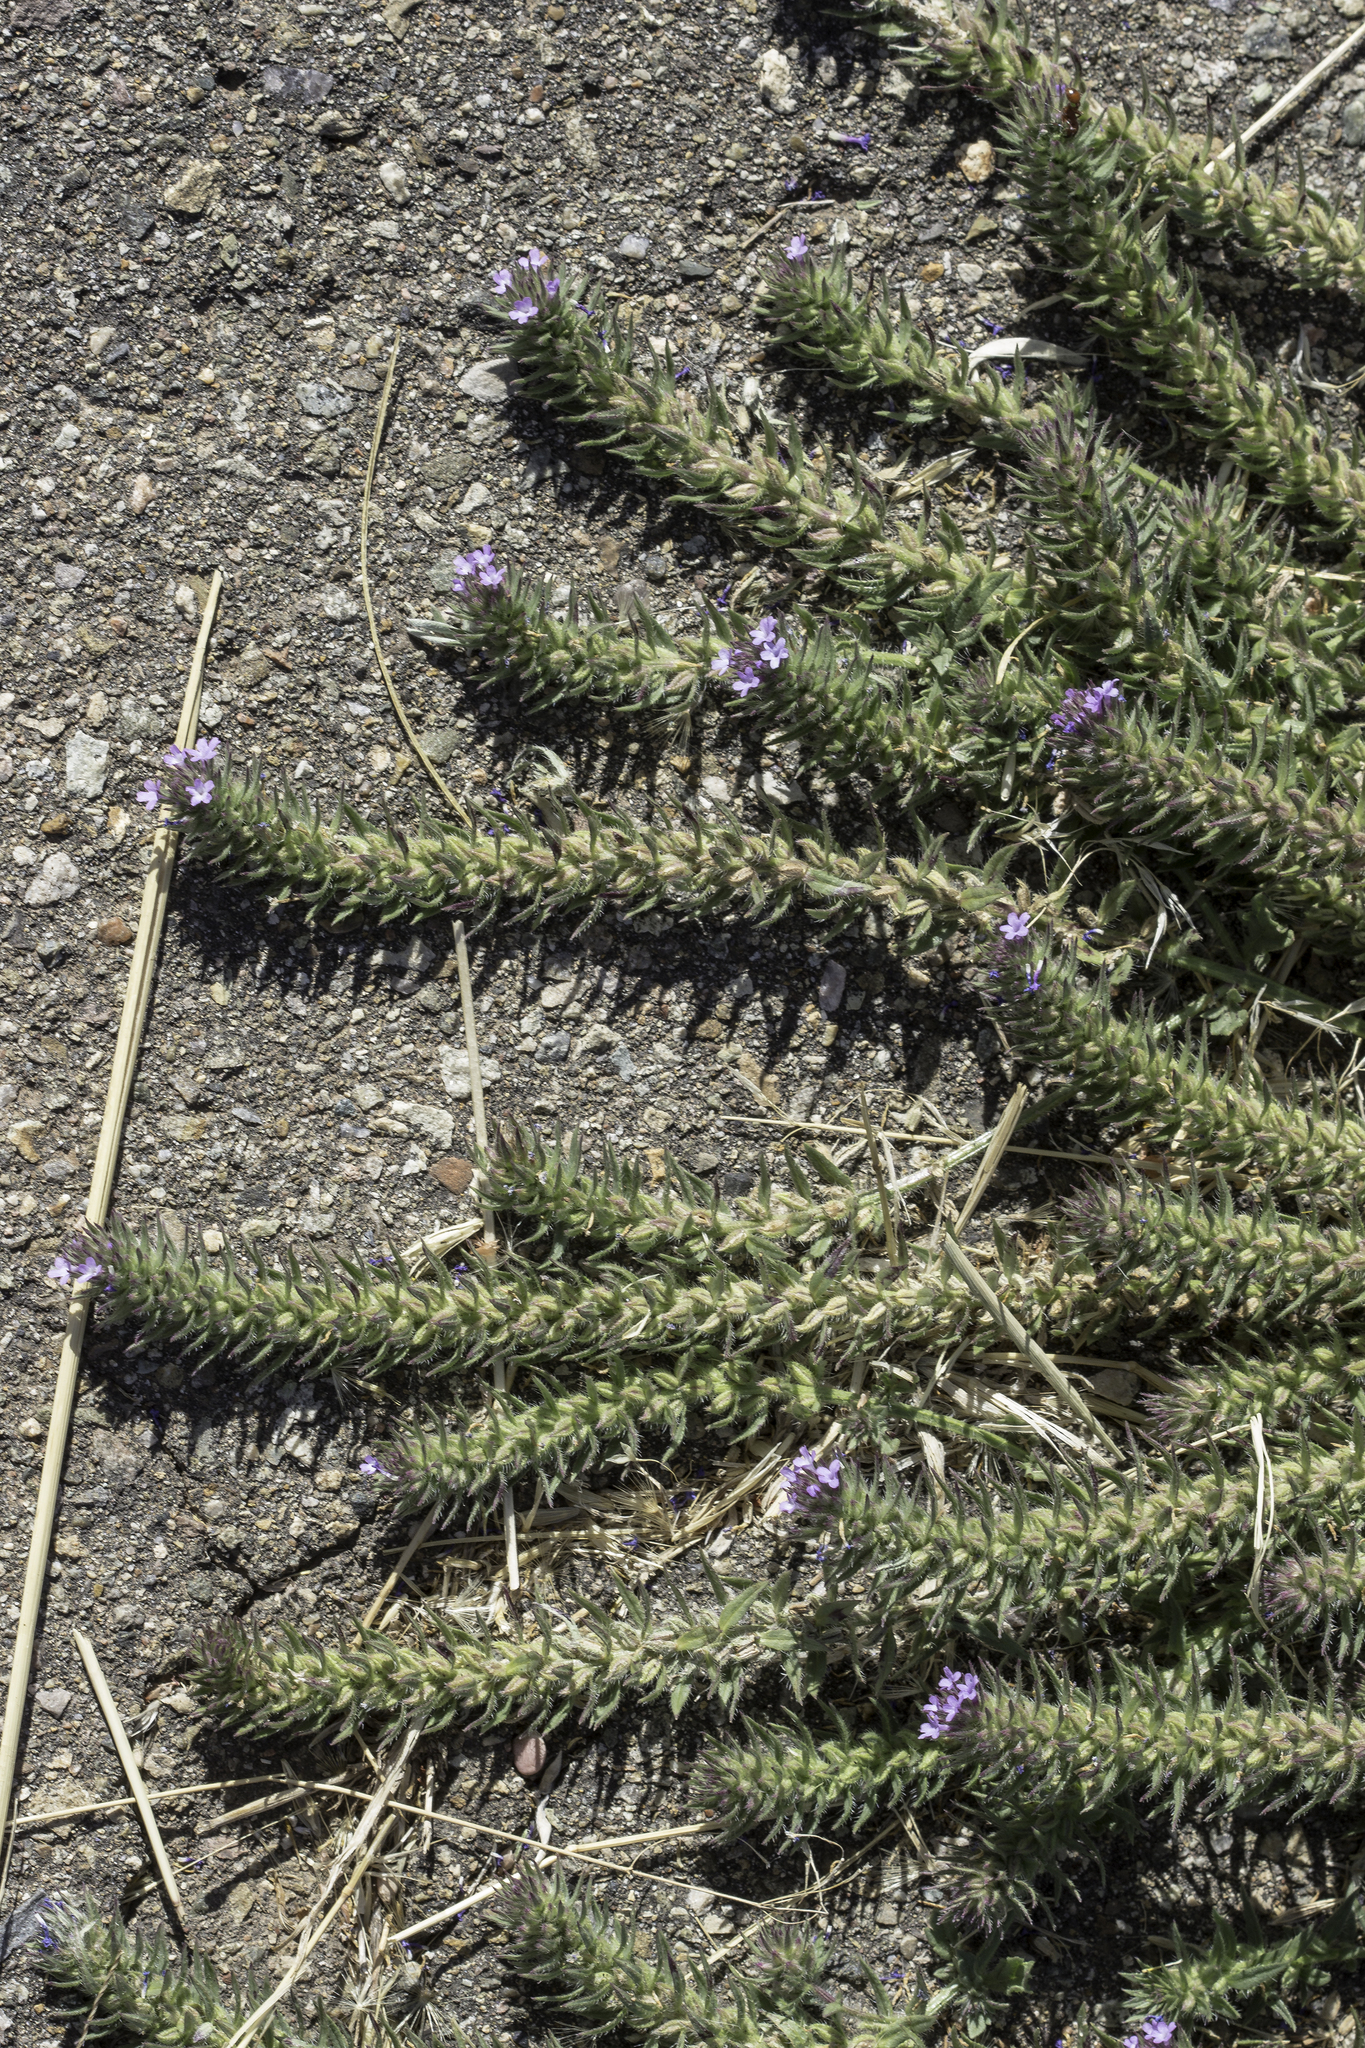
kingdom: Plantae
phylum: Tracheophyta
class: Magnoliopsida
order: Lamiales
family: Verbenaceae
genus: Verbena
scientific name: Verbena bracteata
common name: Bracted vervain
